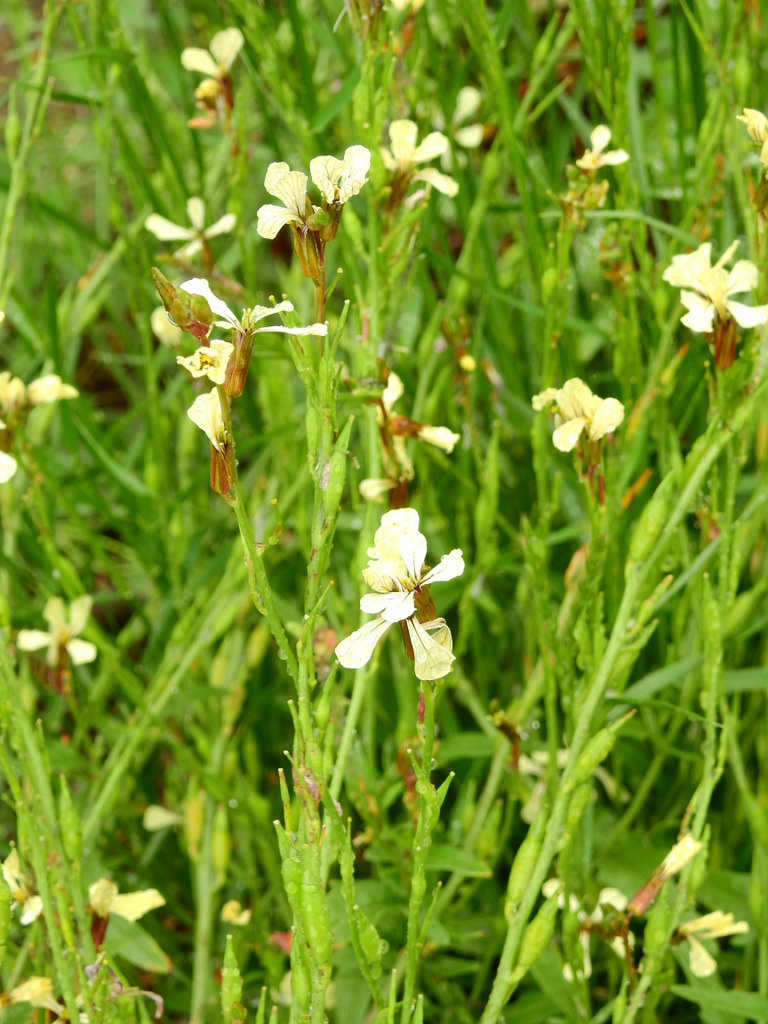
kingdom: Plantae
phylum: Tracheophyta
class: Magnoliopsida
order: Brassicales
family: Brassicaceae
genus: Eruca
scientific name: Eruca vesicaria
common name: Garden rocket
